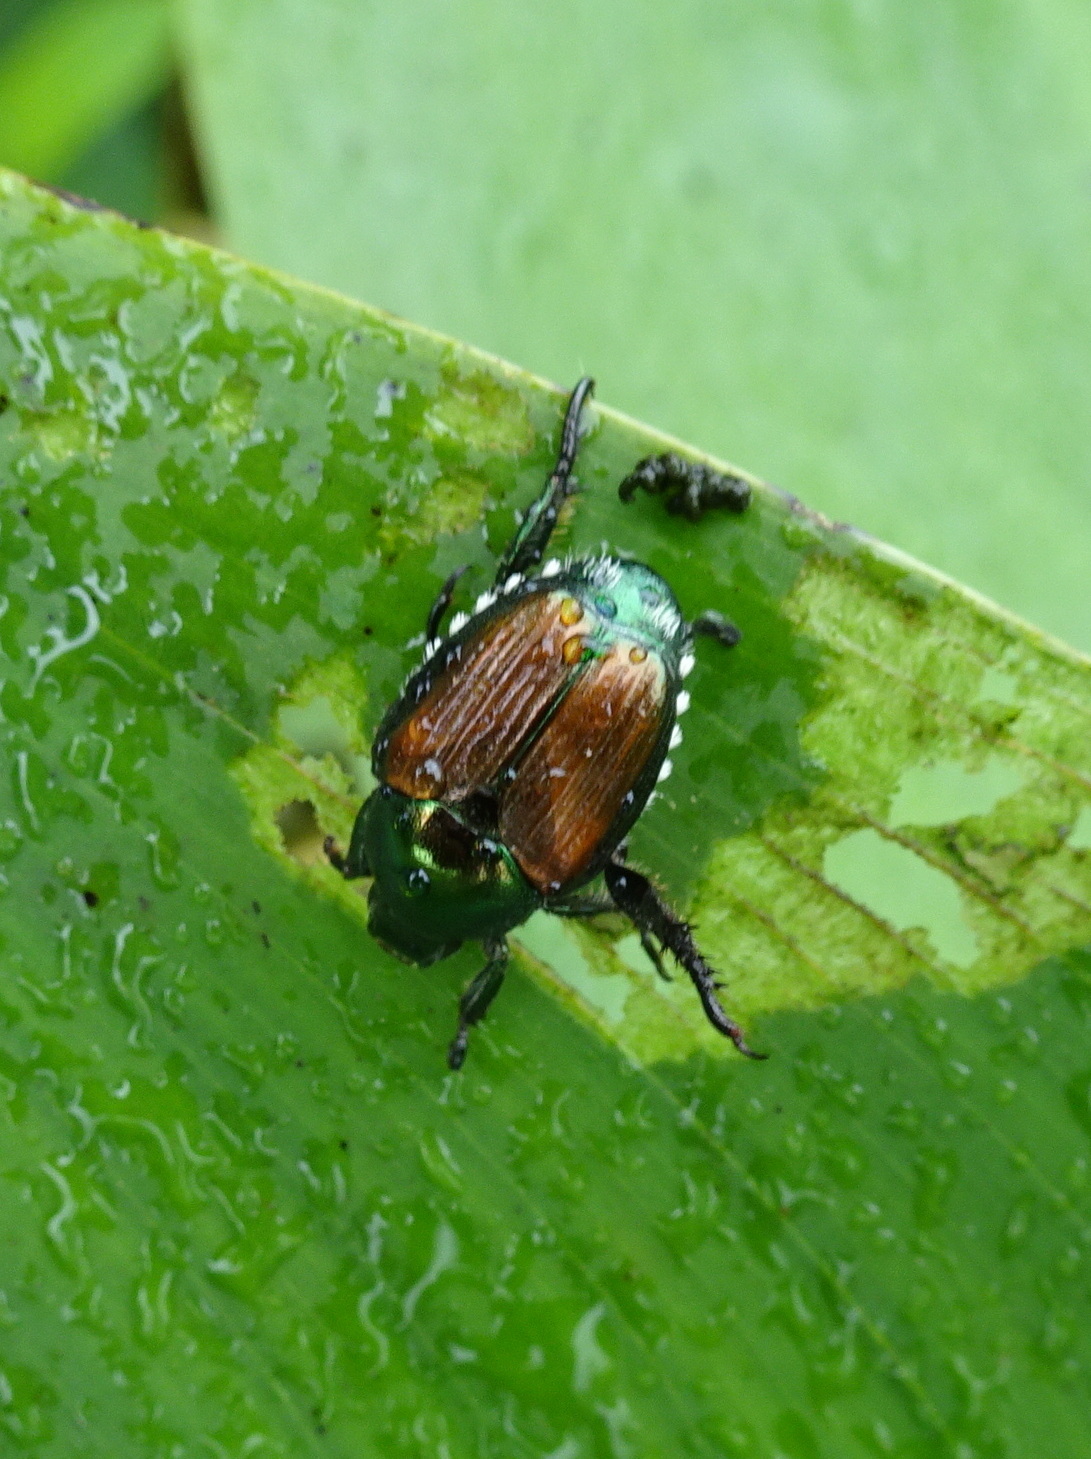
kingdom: Animalia
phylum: Arthropoda
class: Insecta
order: Coleoptera
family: Scarabaeidae
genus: Popillia
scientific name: Popillia japonica
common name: Japanese beetle
